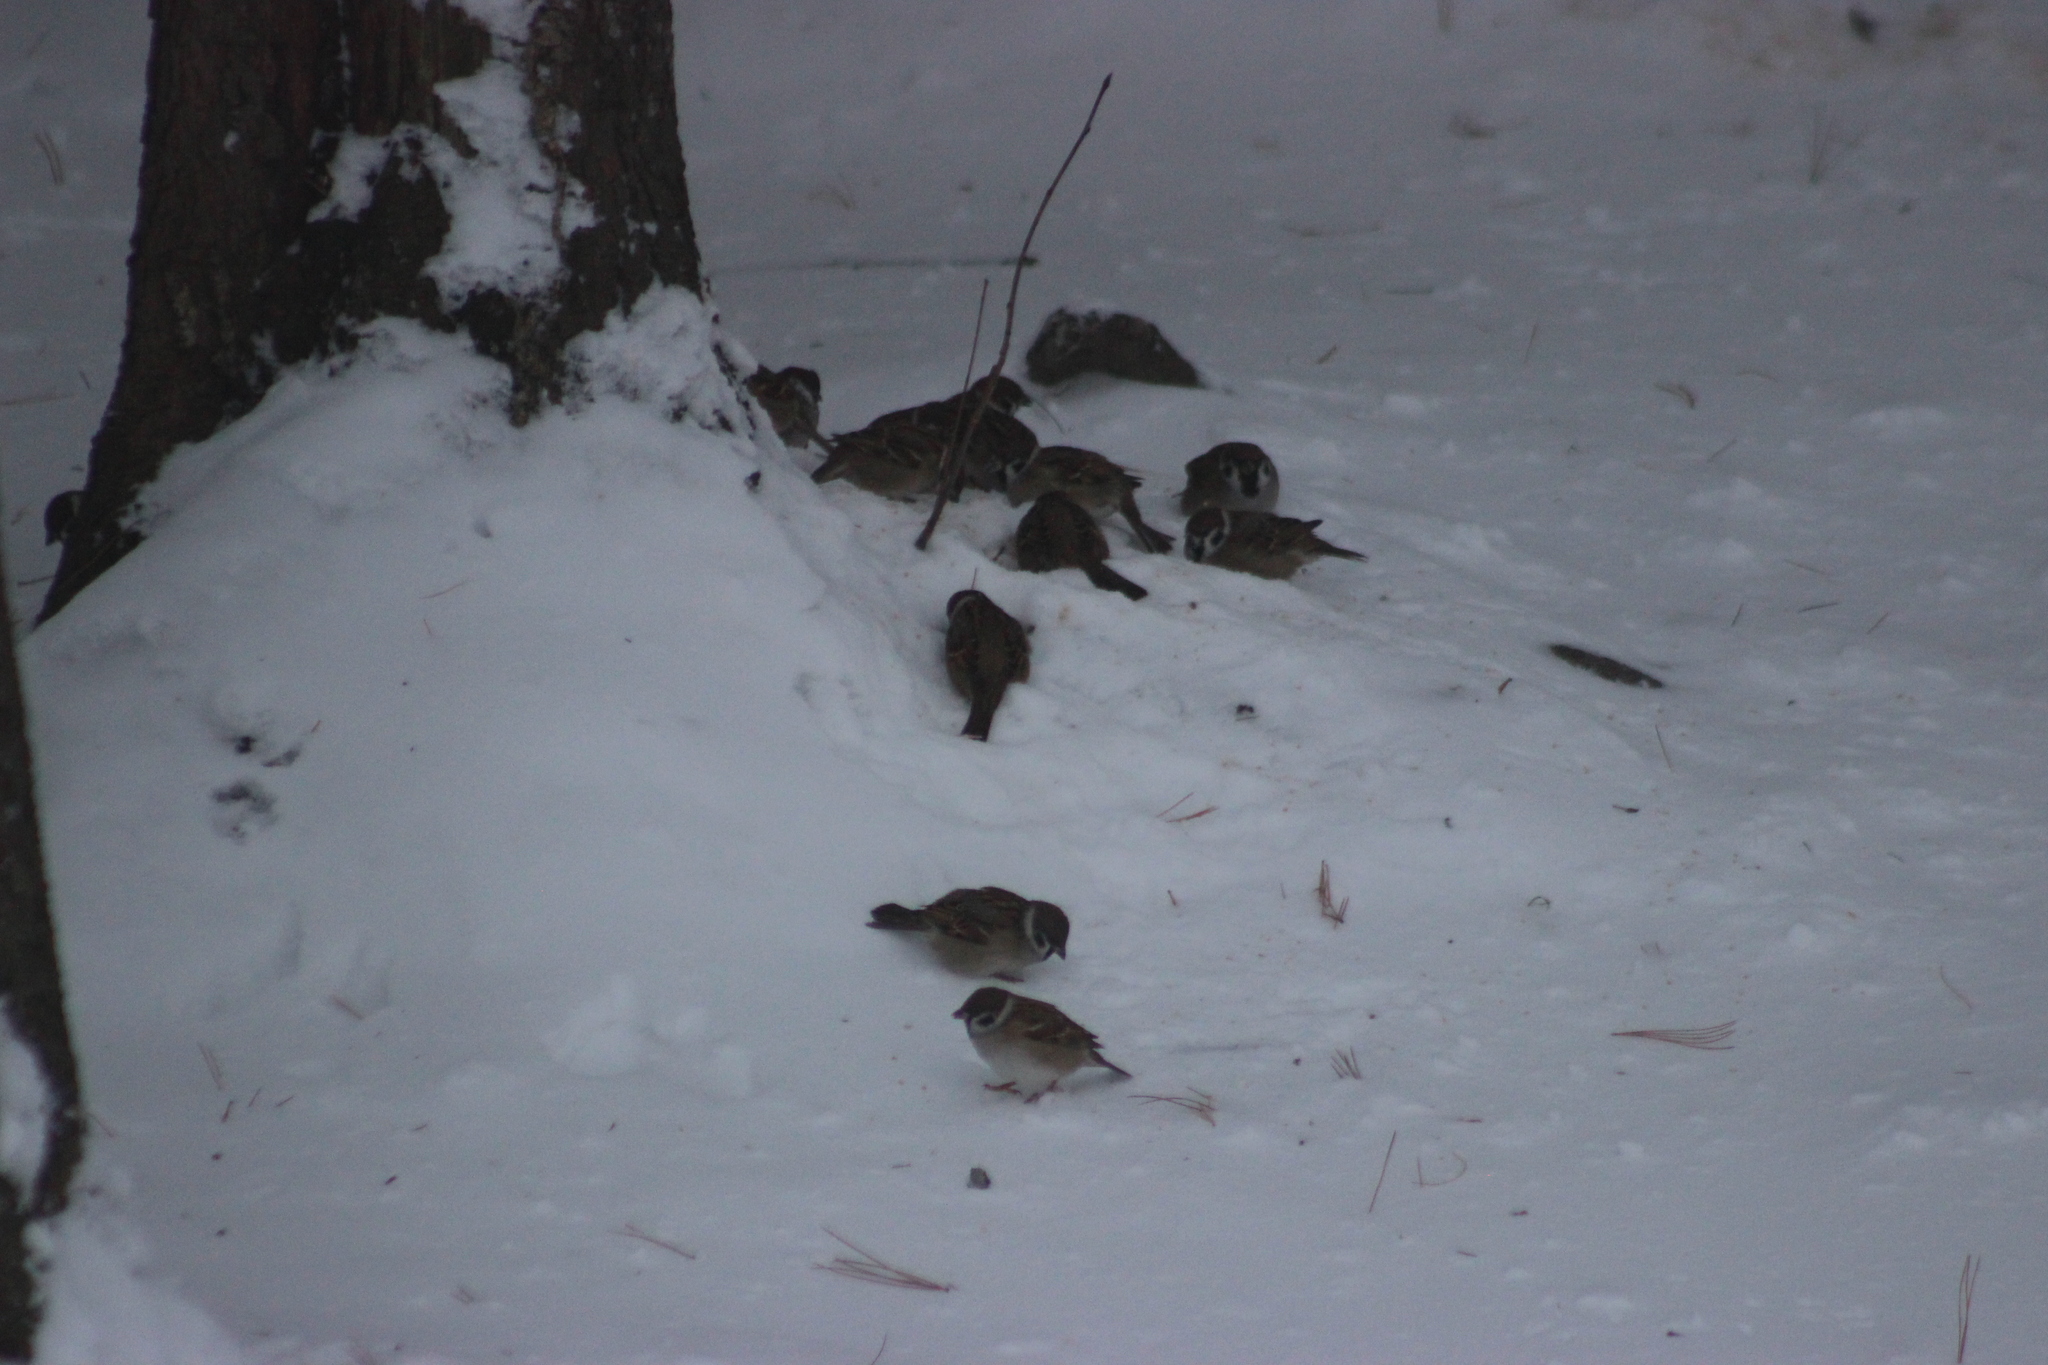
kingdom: Animalia
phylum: Chordata
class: Aves
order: Passeriformes
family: Passeridae
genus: Passer
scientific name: Passer montanus
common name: Eurasian tree sparrow
